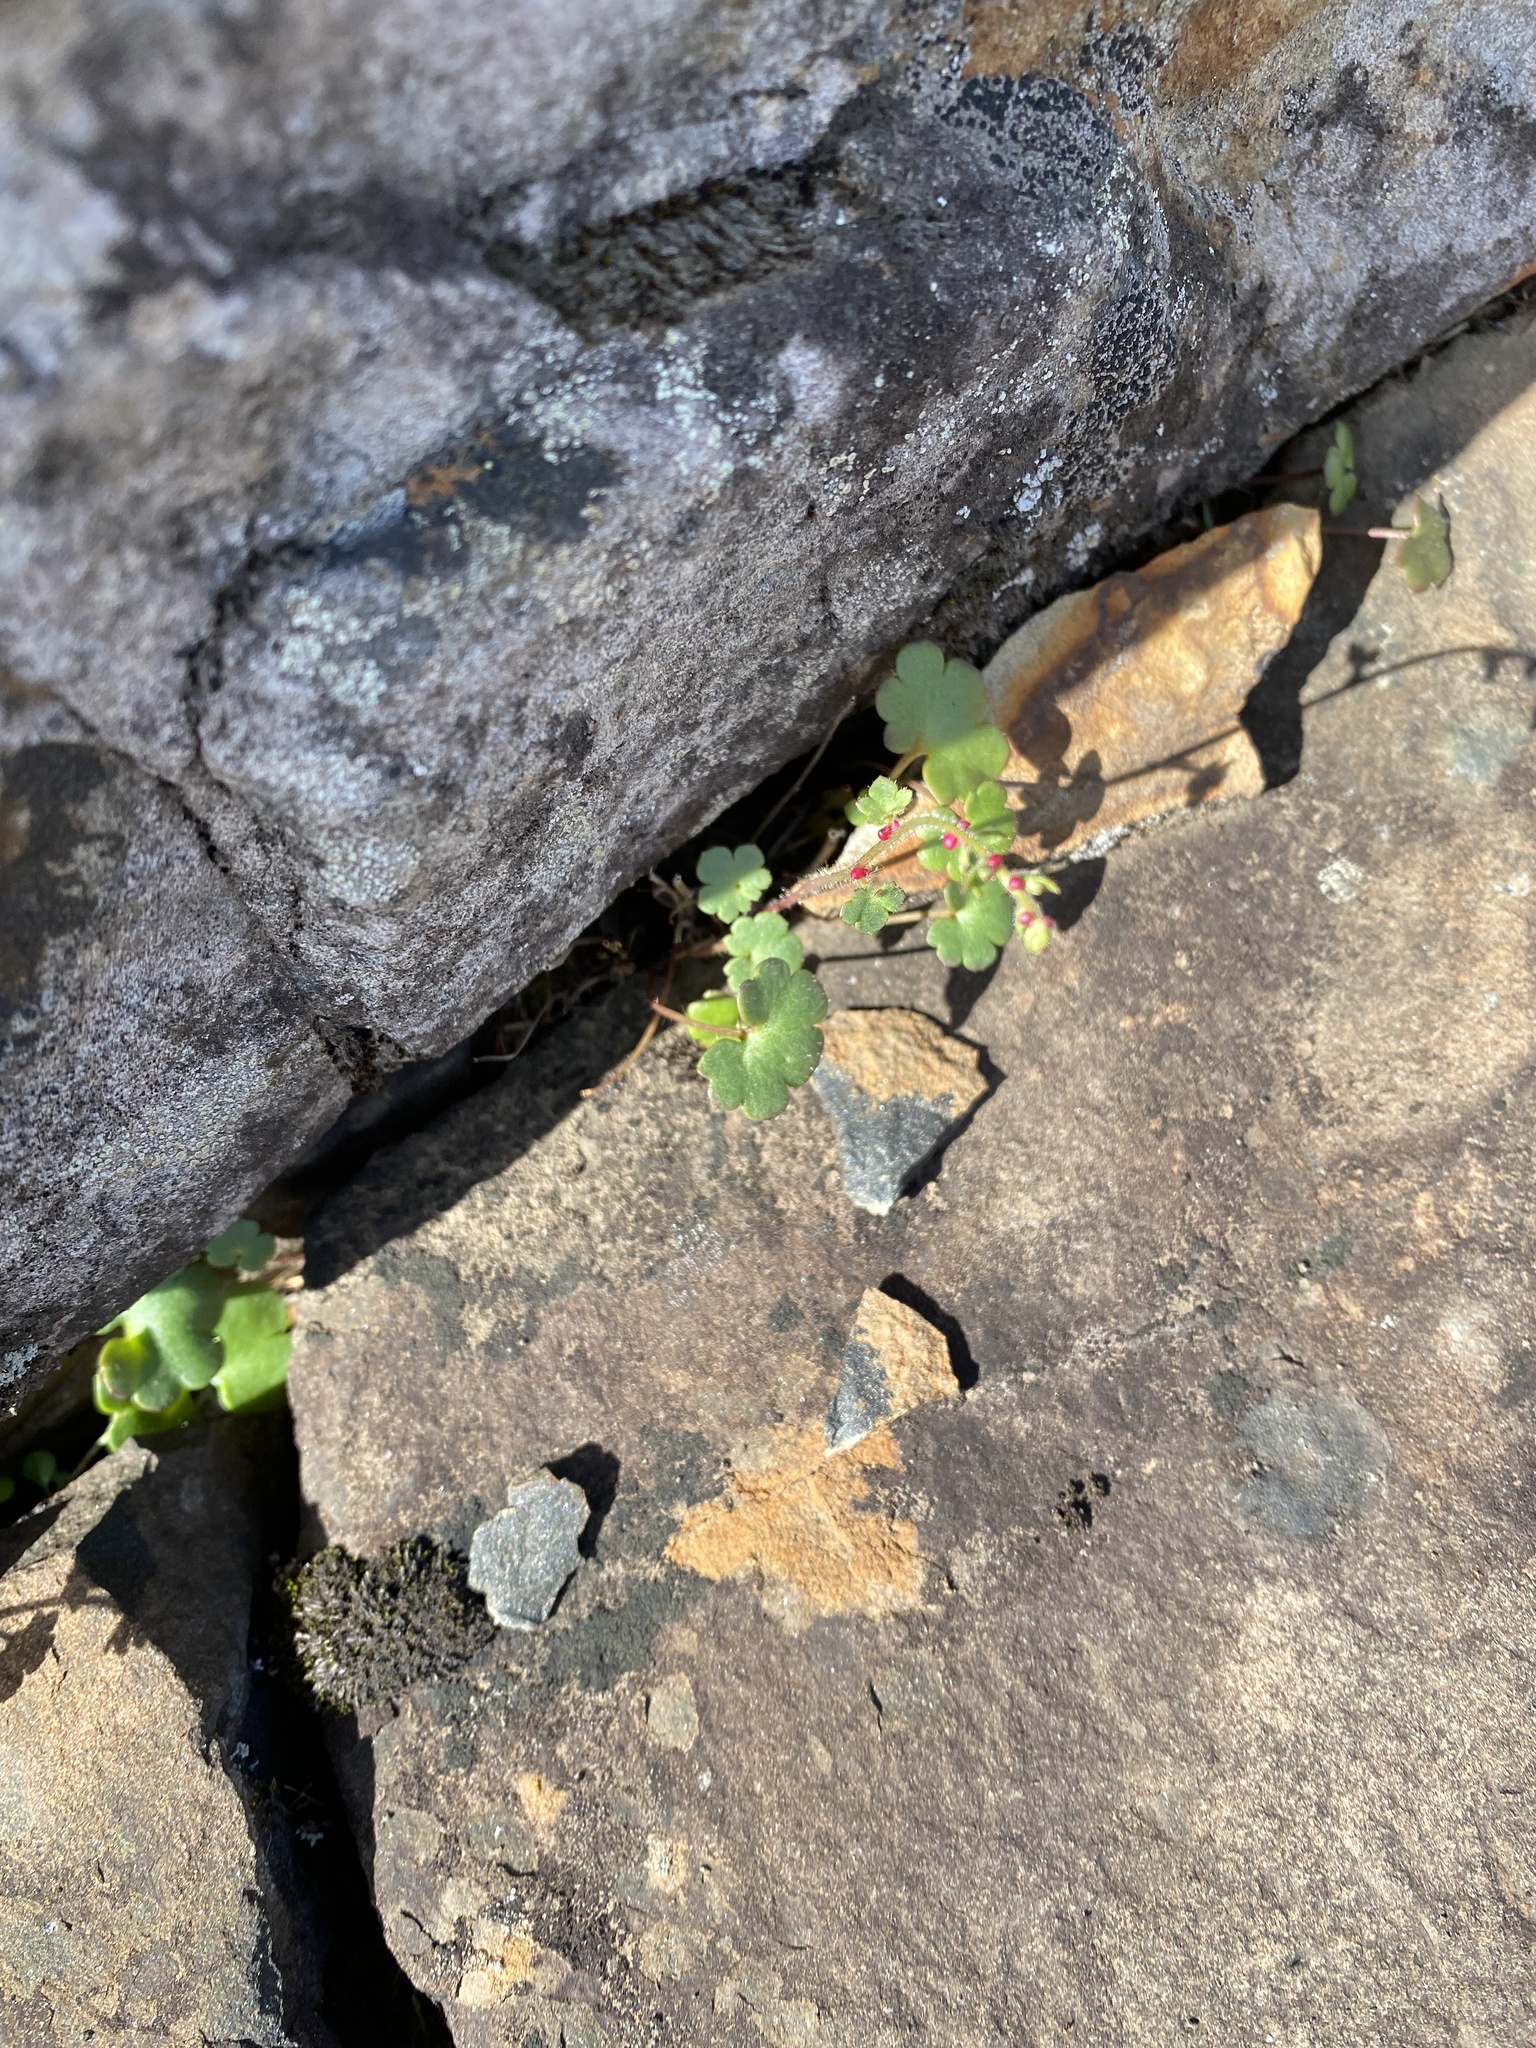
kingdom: Plantae
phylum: Tracheophyta
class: Magnoliopsida
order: Saxifragales
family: Saxifragaceae
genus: Saxifraga
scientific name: Saxifraga cernua
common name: Drooping saxifrage
